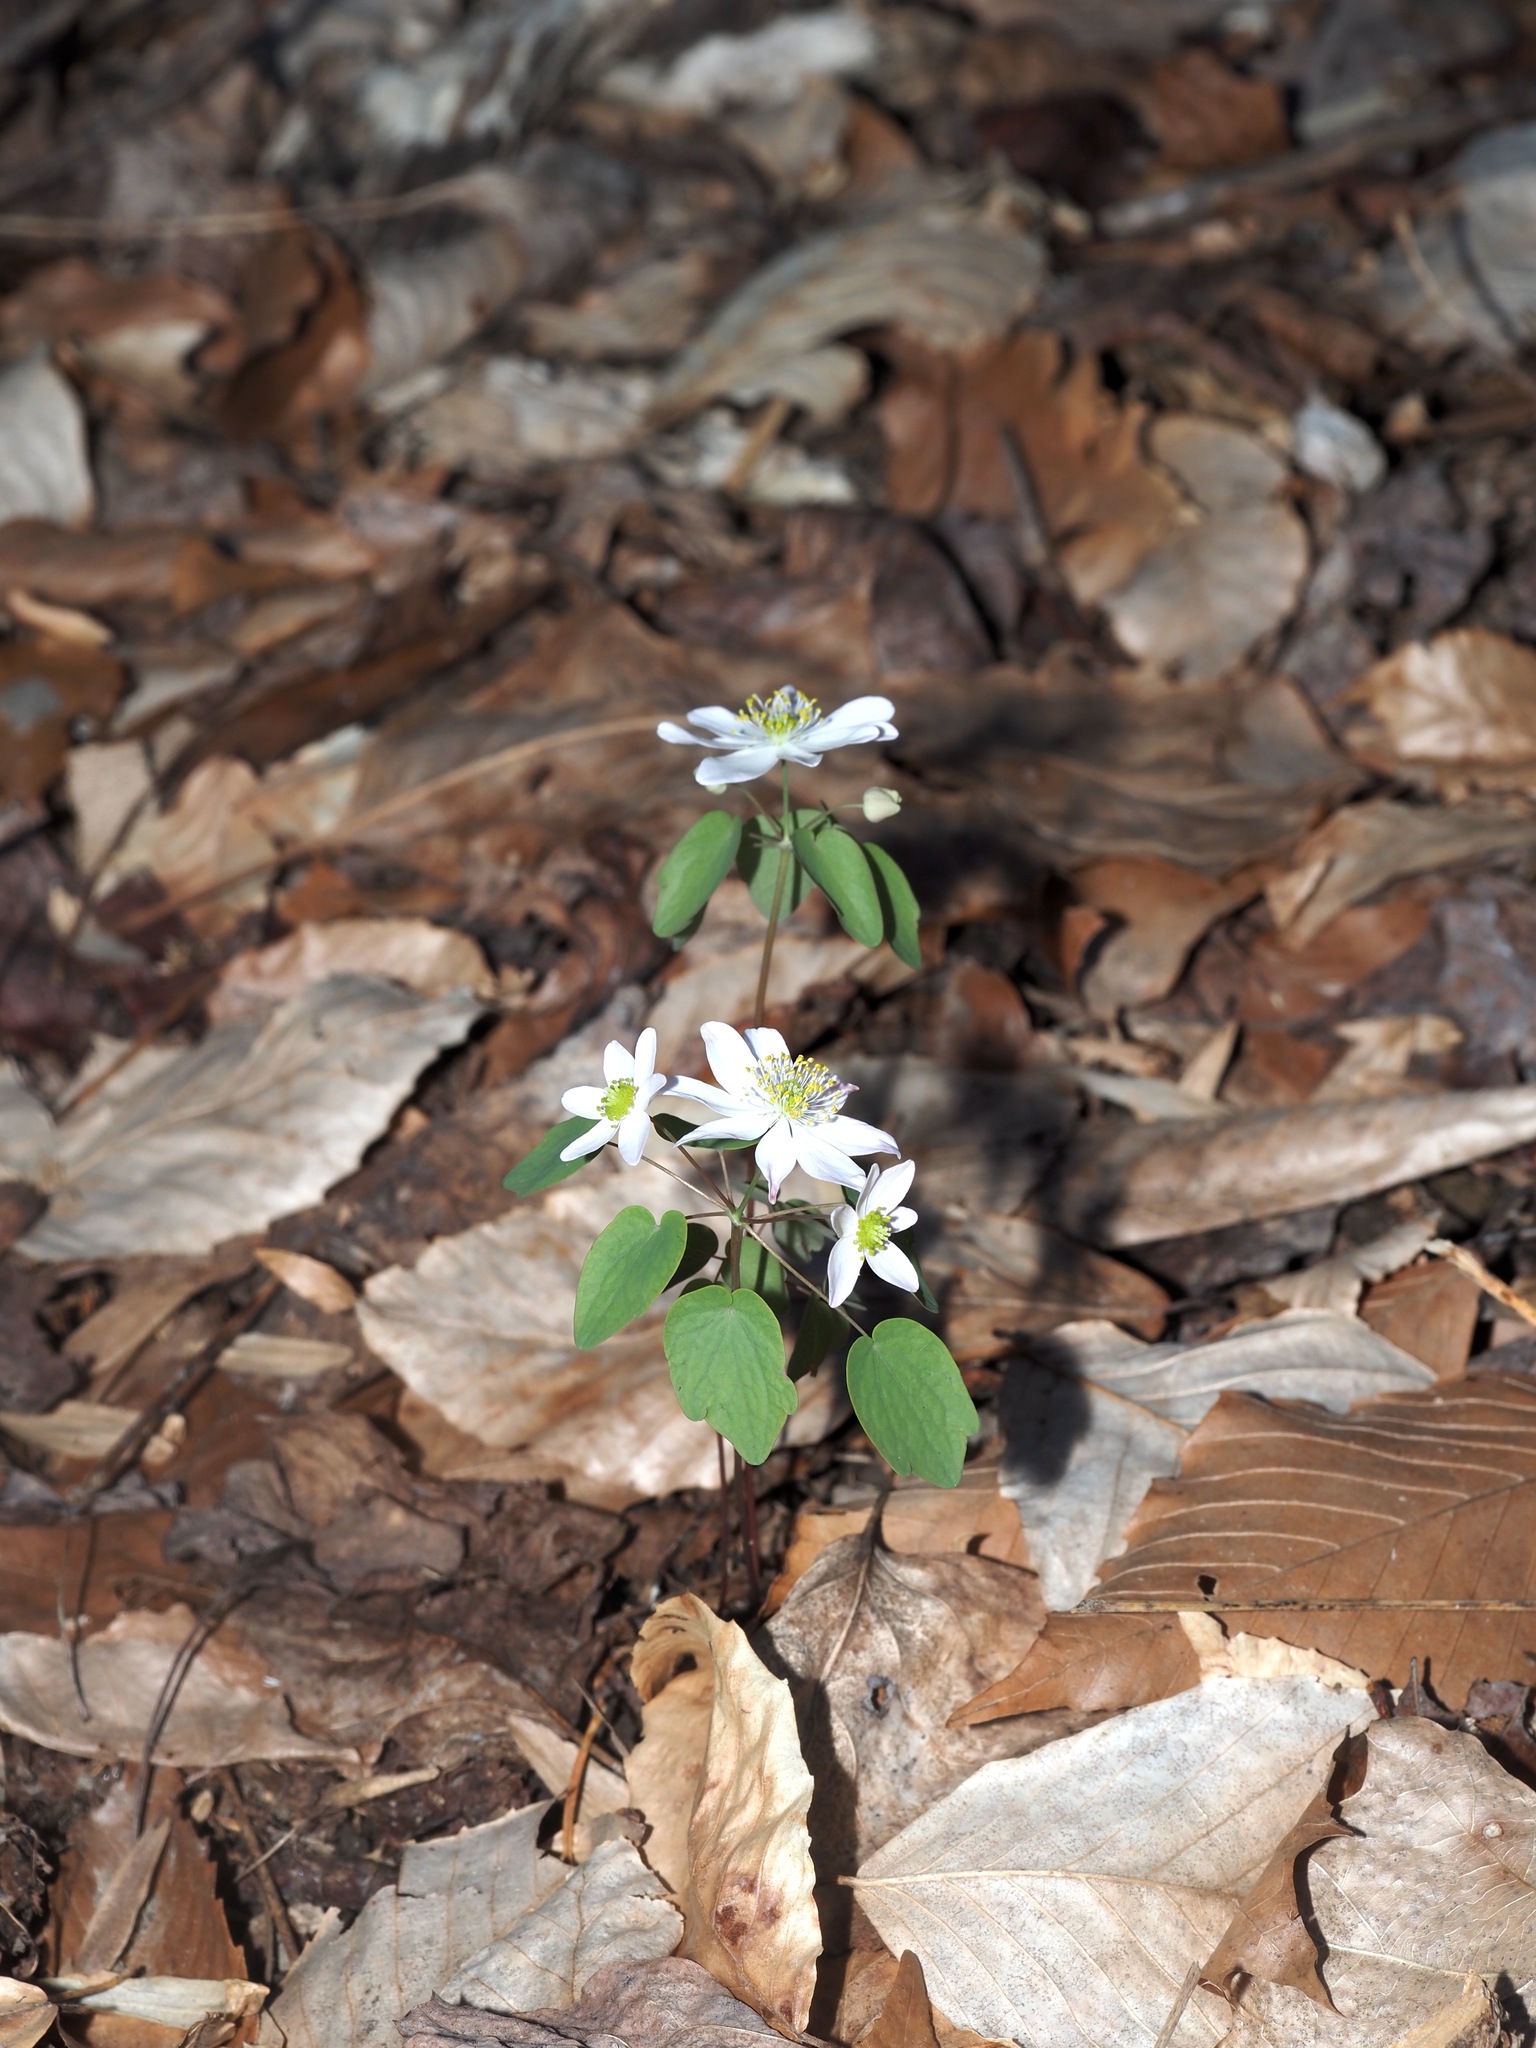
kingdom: Plantae
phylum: Tracheophyta
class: Magnoliopsida
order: Ranunculales
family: Ranunculaceae
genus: Thalictrum
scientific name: Thalictrum thalictroides
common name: Rue-anemone
